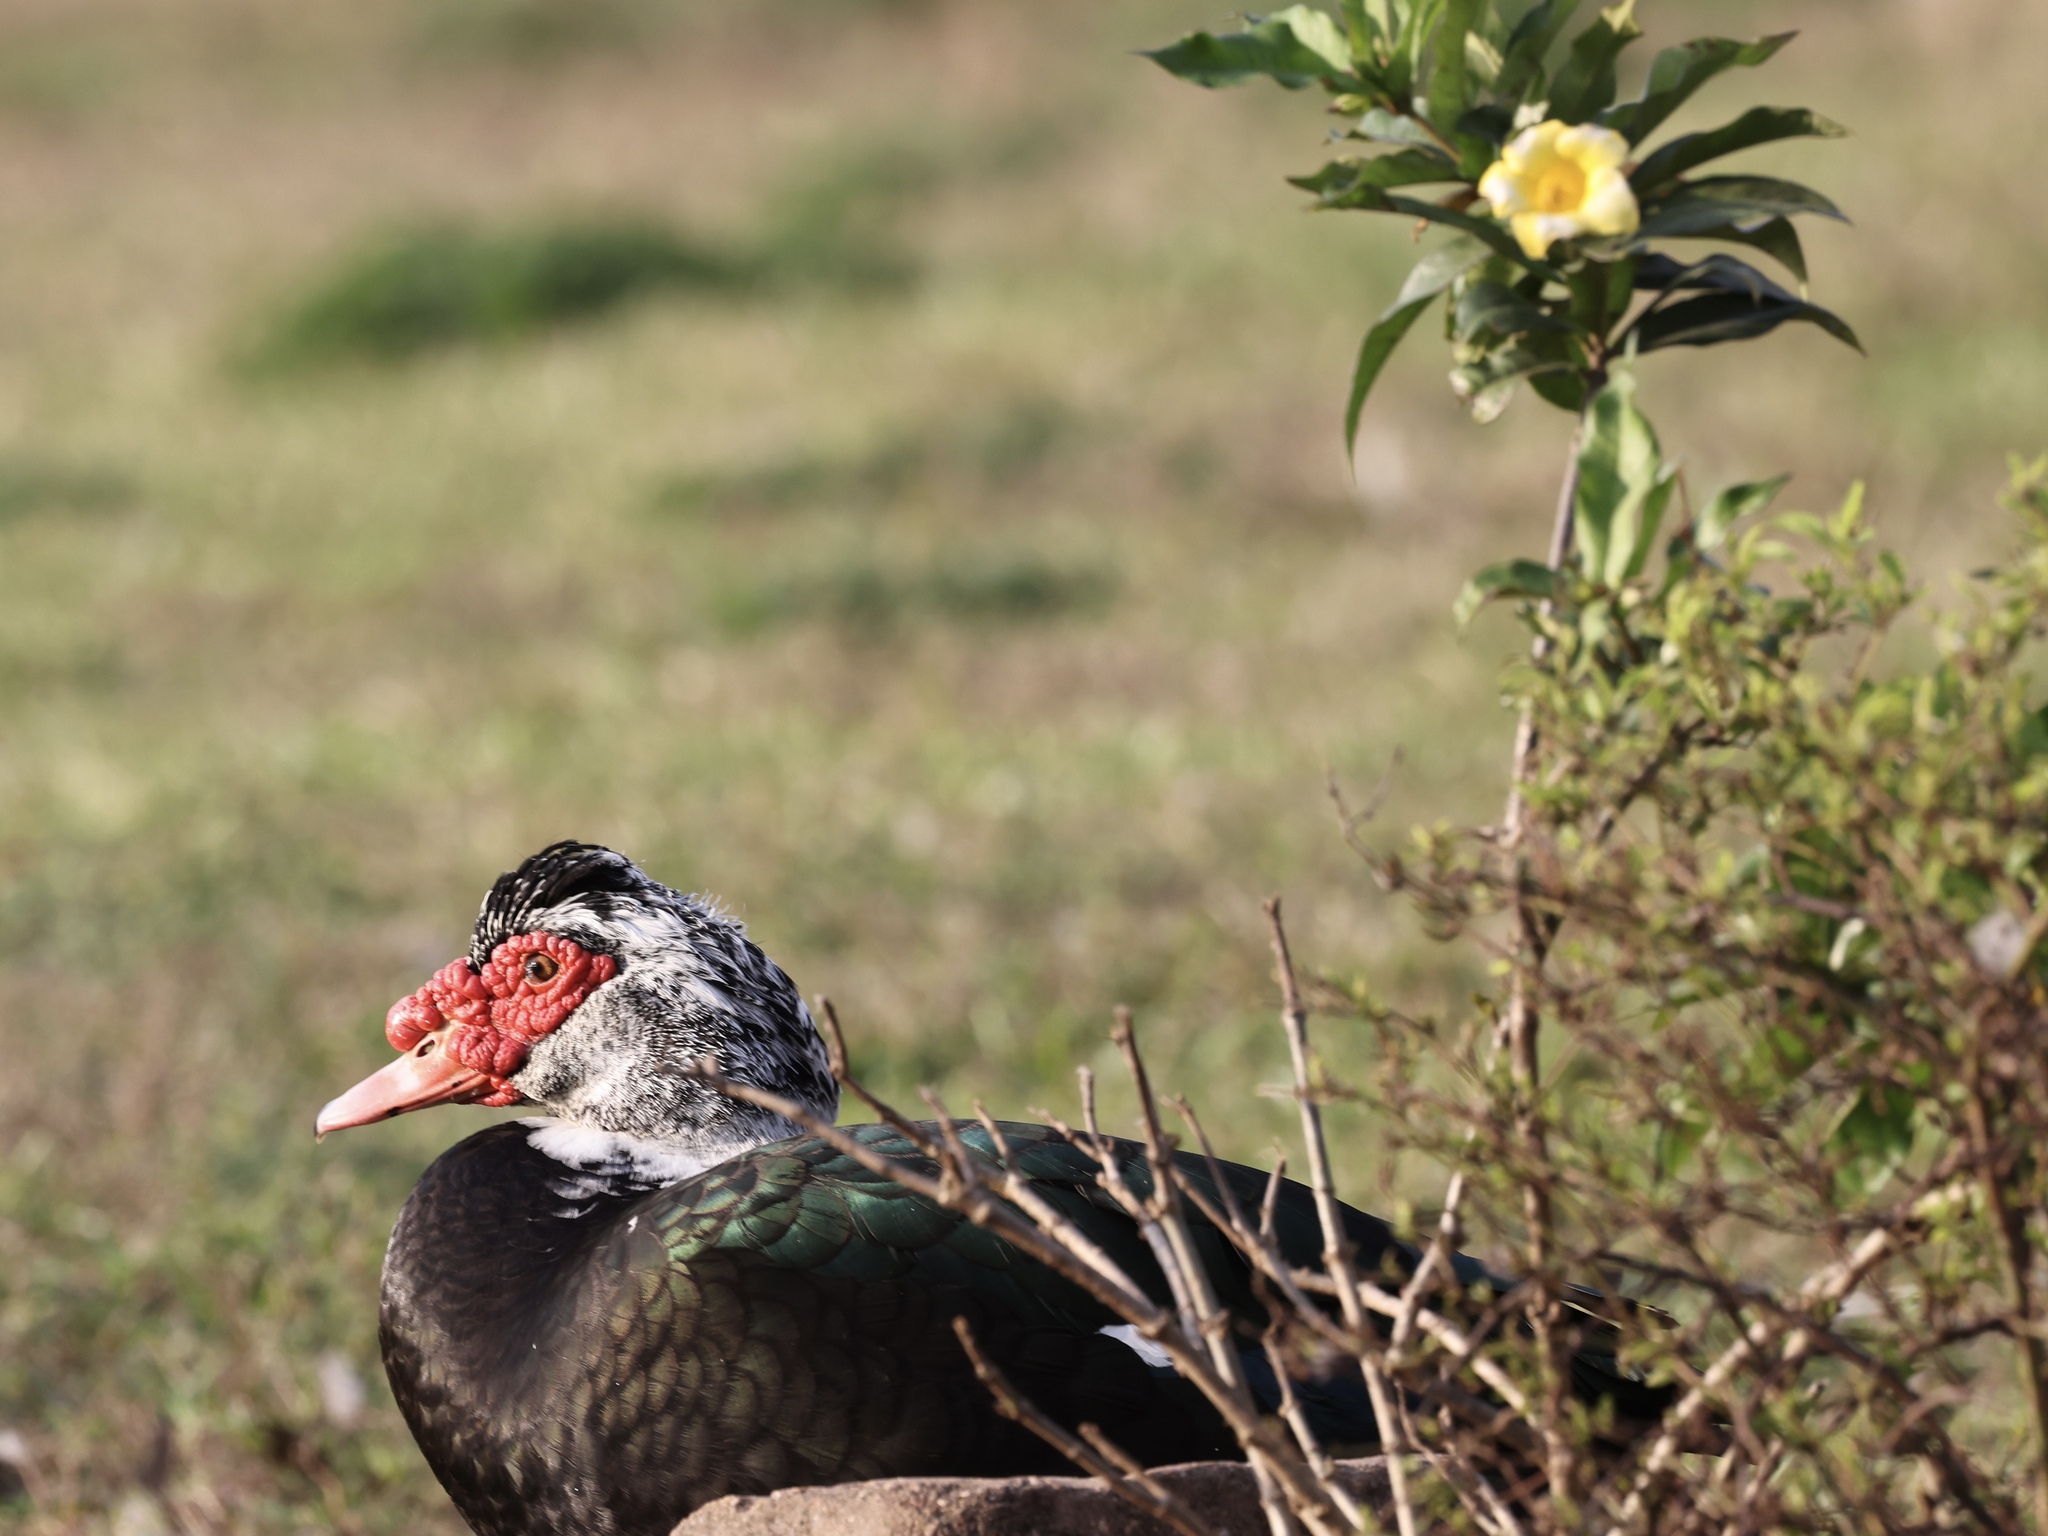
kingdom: Animalia
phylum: Chordata
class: Aves
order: Anseriformes
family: Anatidae
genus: Cairina
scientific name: Cairina moschata
